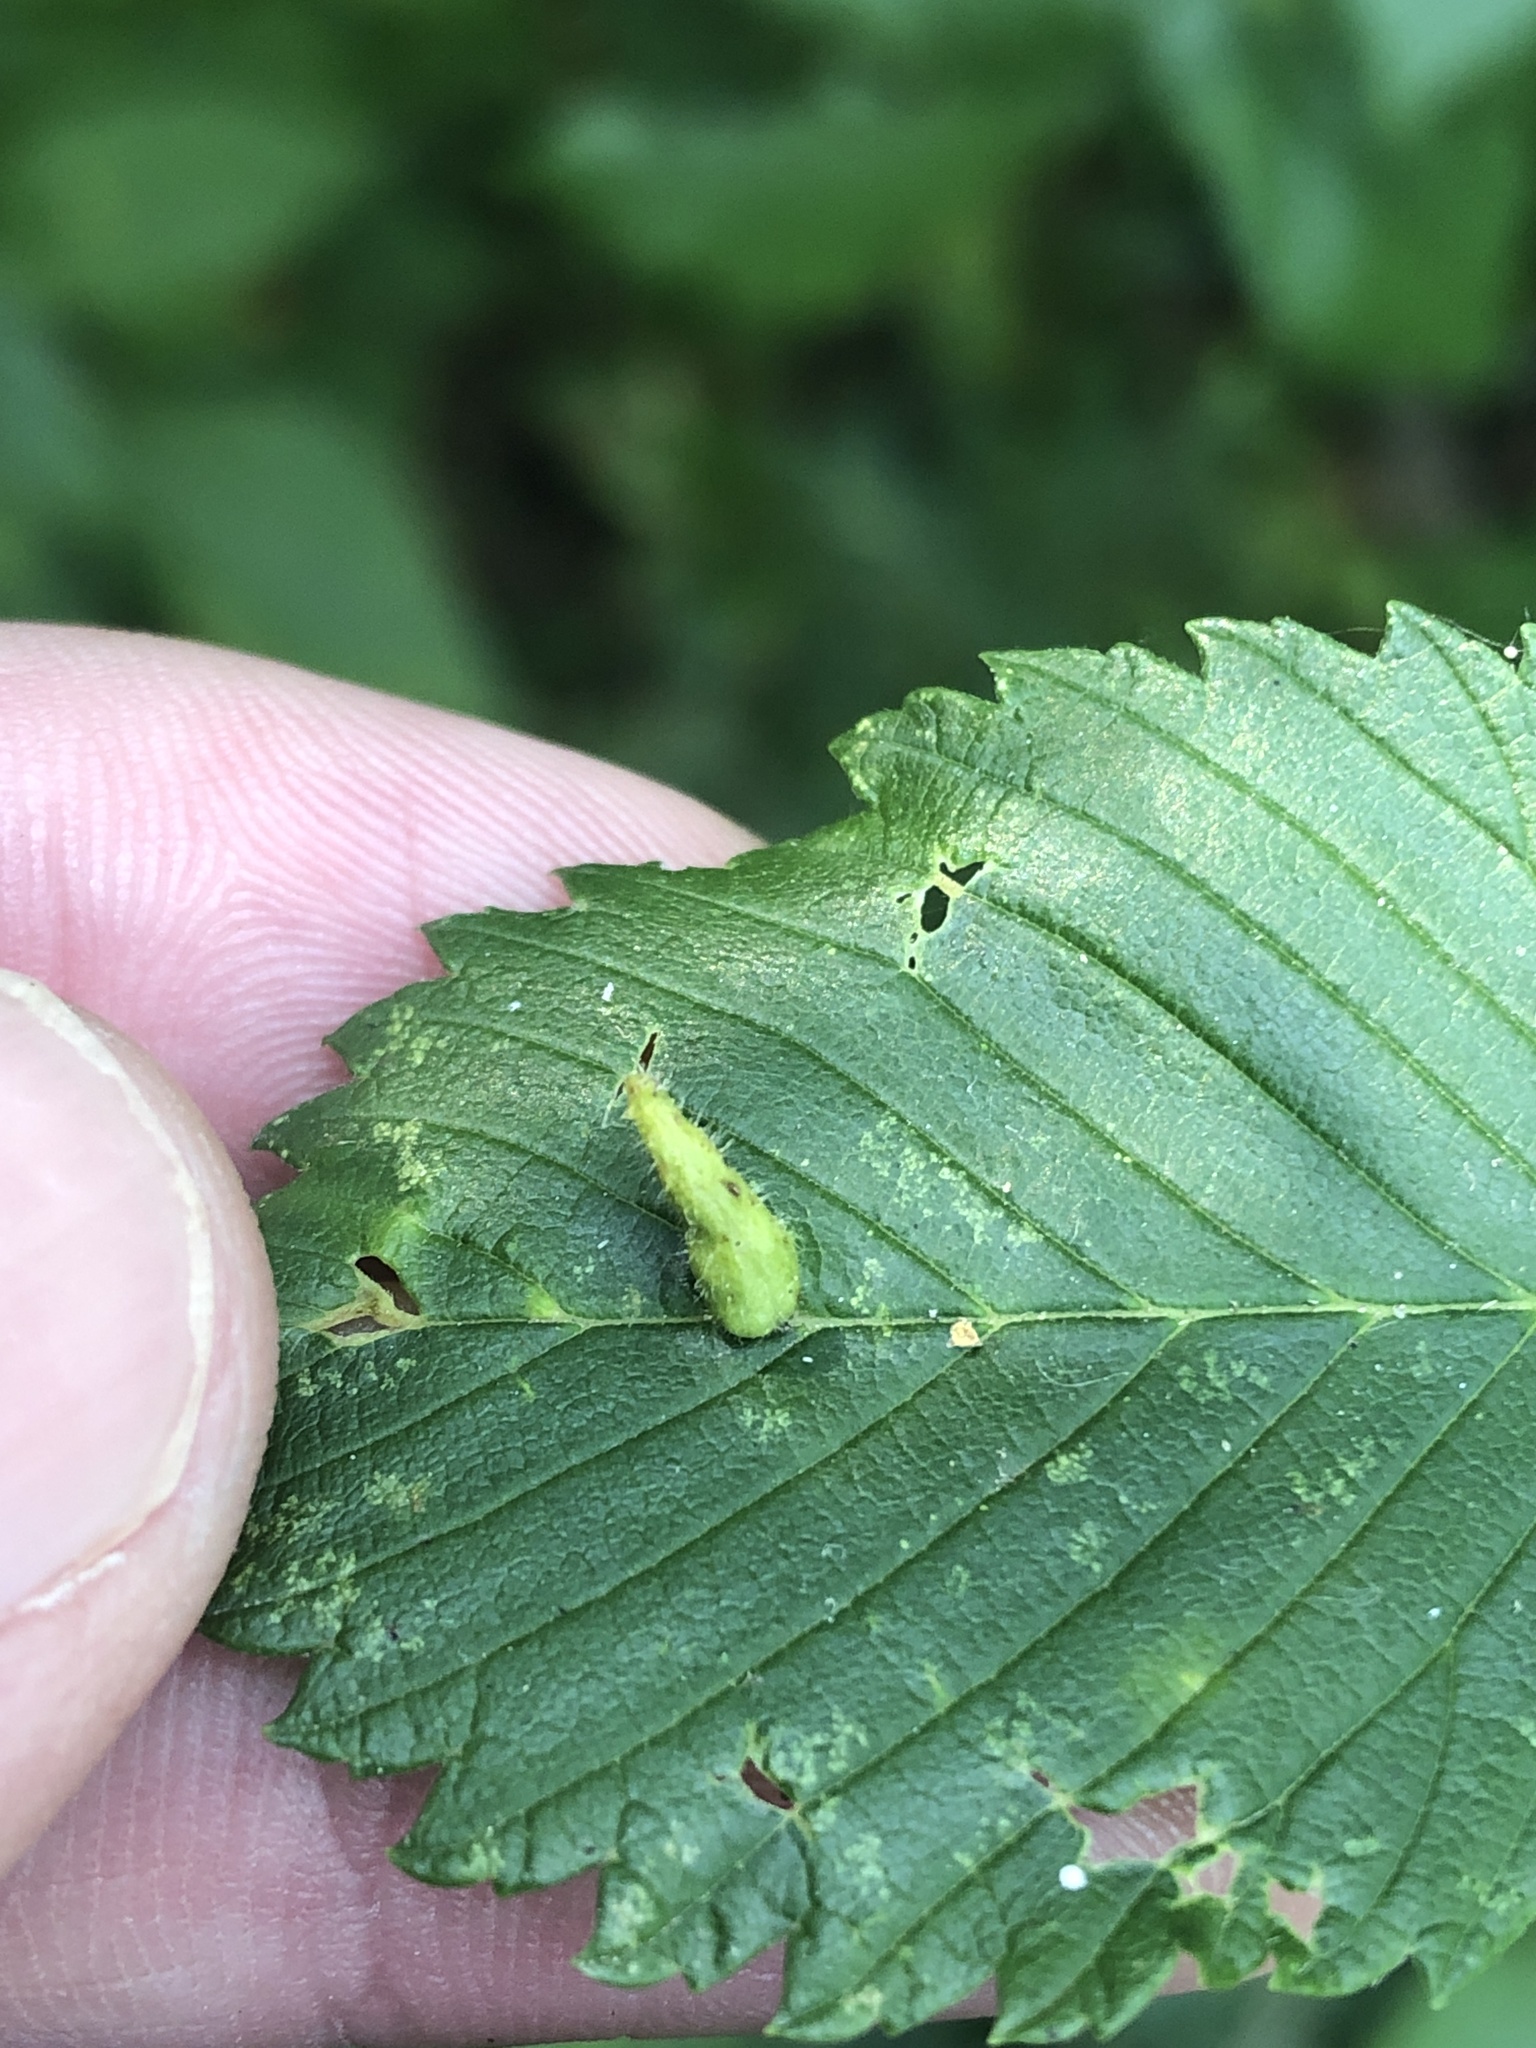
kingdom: Animalia
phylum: Arthropoda
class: Arachnida
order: Trombidiformes
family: Eriophyidae
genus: Aceria
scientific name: Aceria
